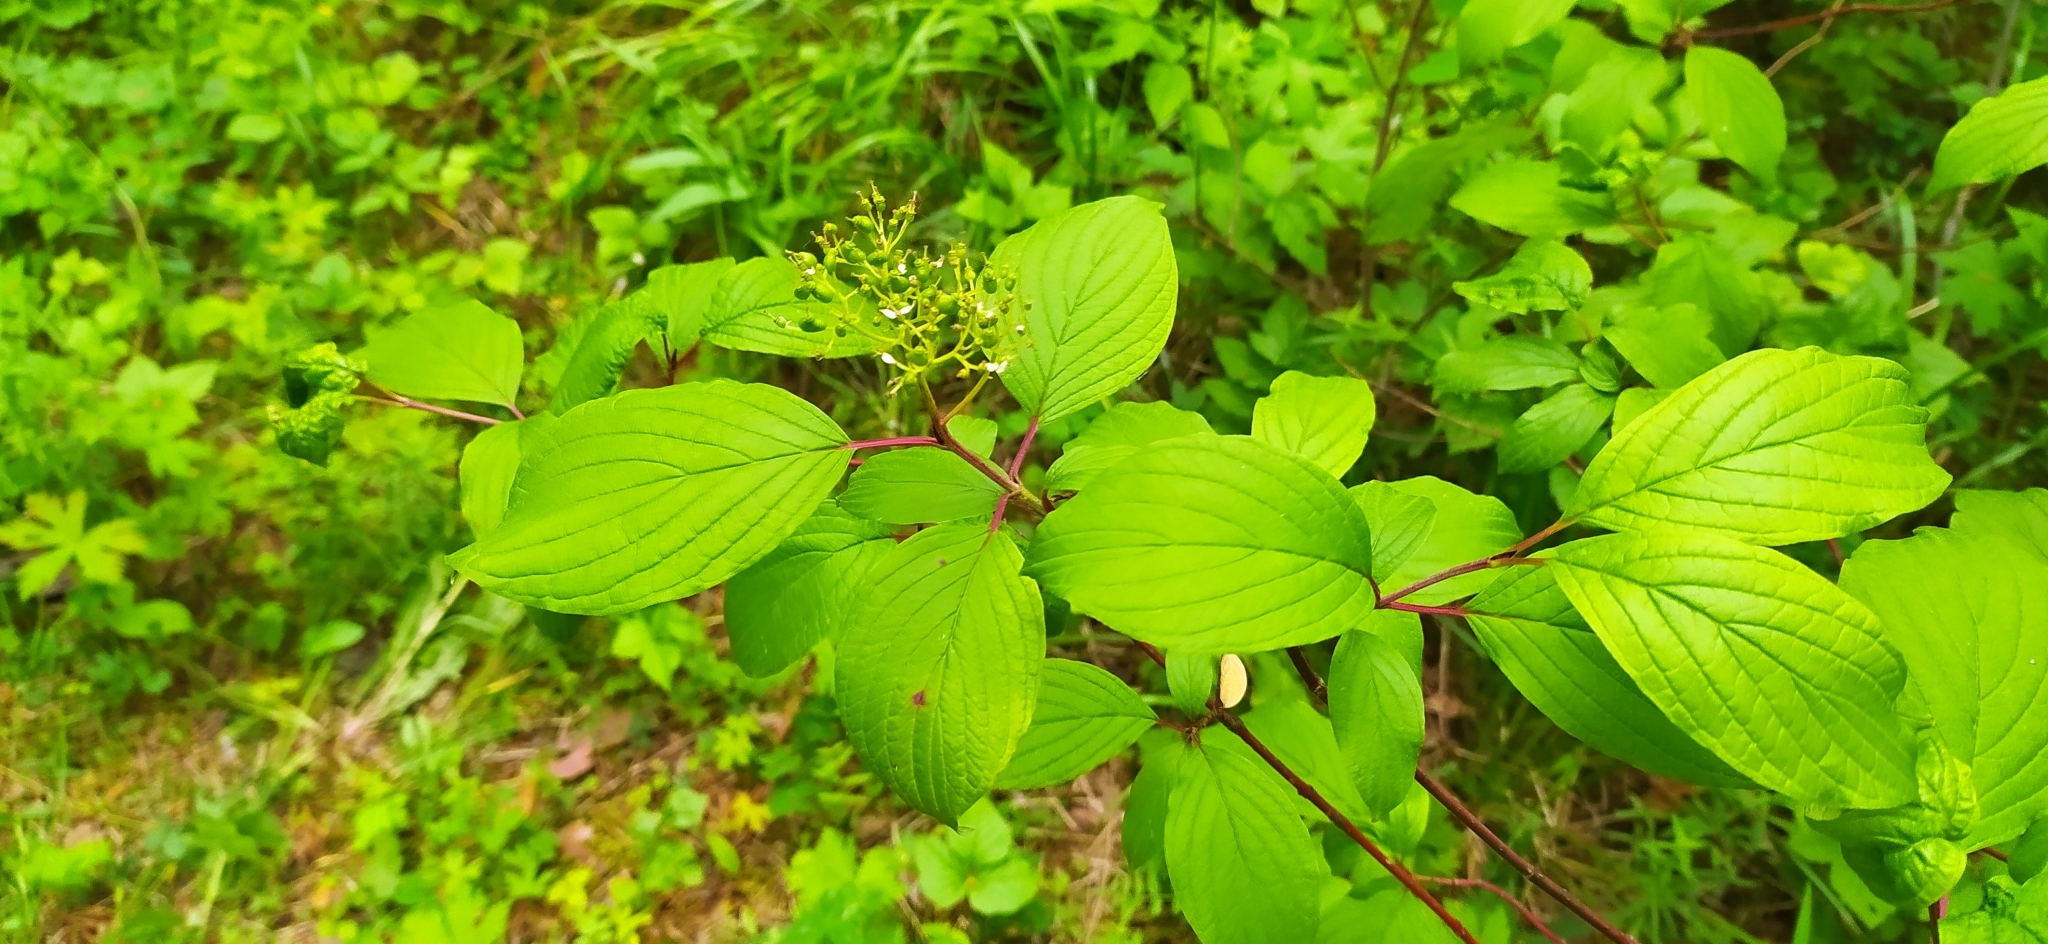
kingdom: Plantae
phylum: Tracheophyta
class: Magnoliopsida
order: Cornales
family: Cornaceae
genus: Cornus
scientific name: Cornus alba
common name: White dogwood
